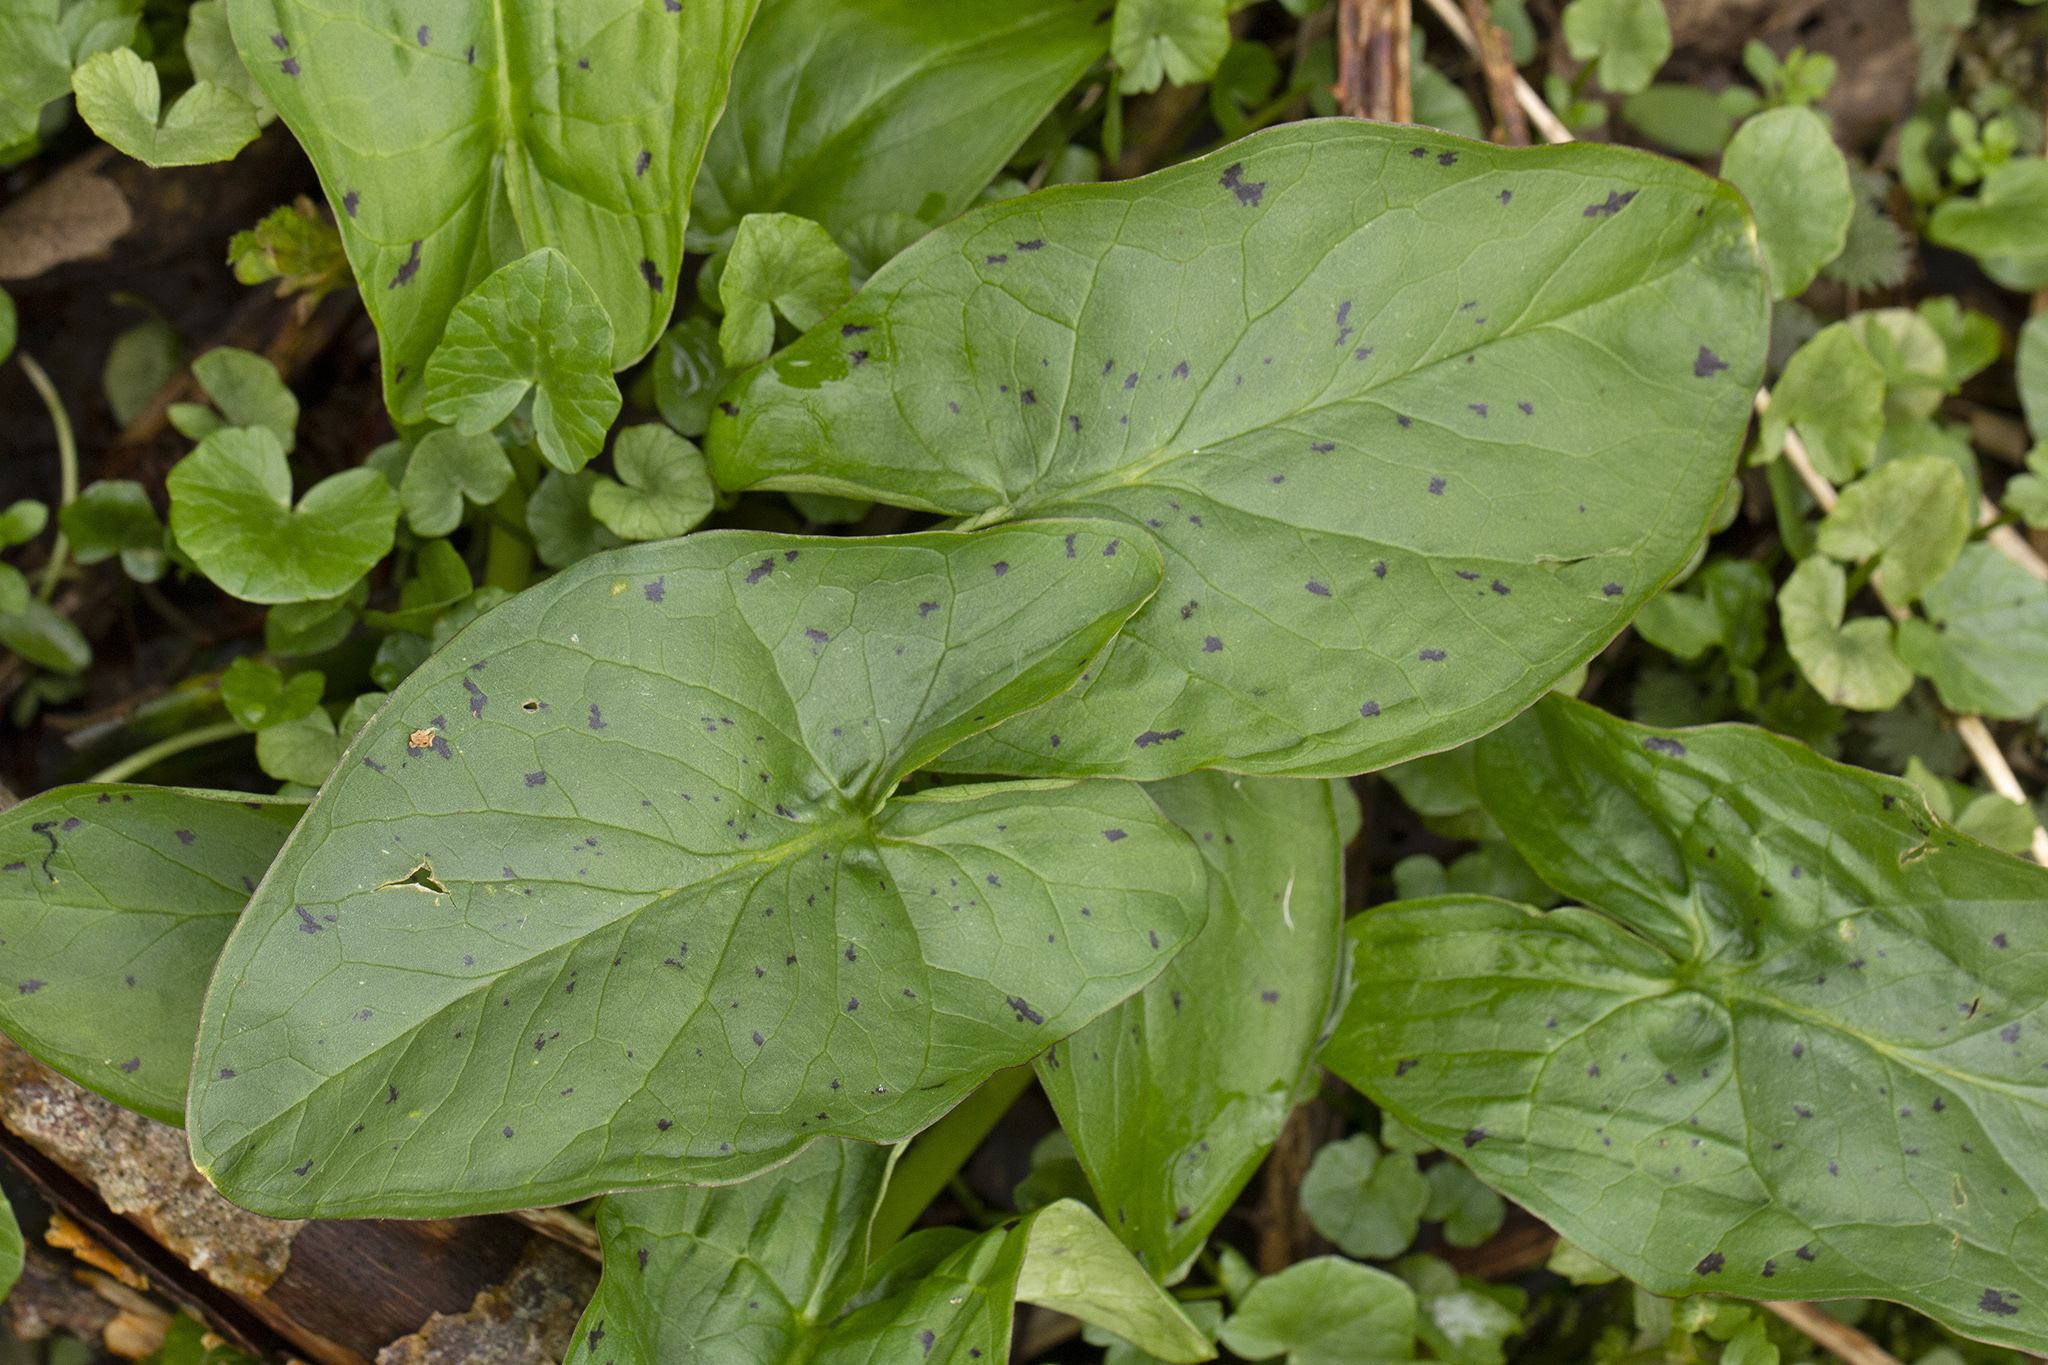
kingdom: Plantae
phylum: Tracheophyta
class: Liliopsida
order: Alismatales
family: Araceae
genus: Arum
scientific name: Arum maculatum
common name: Lords-and-ladies
